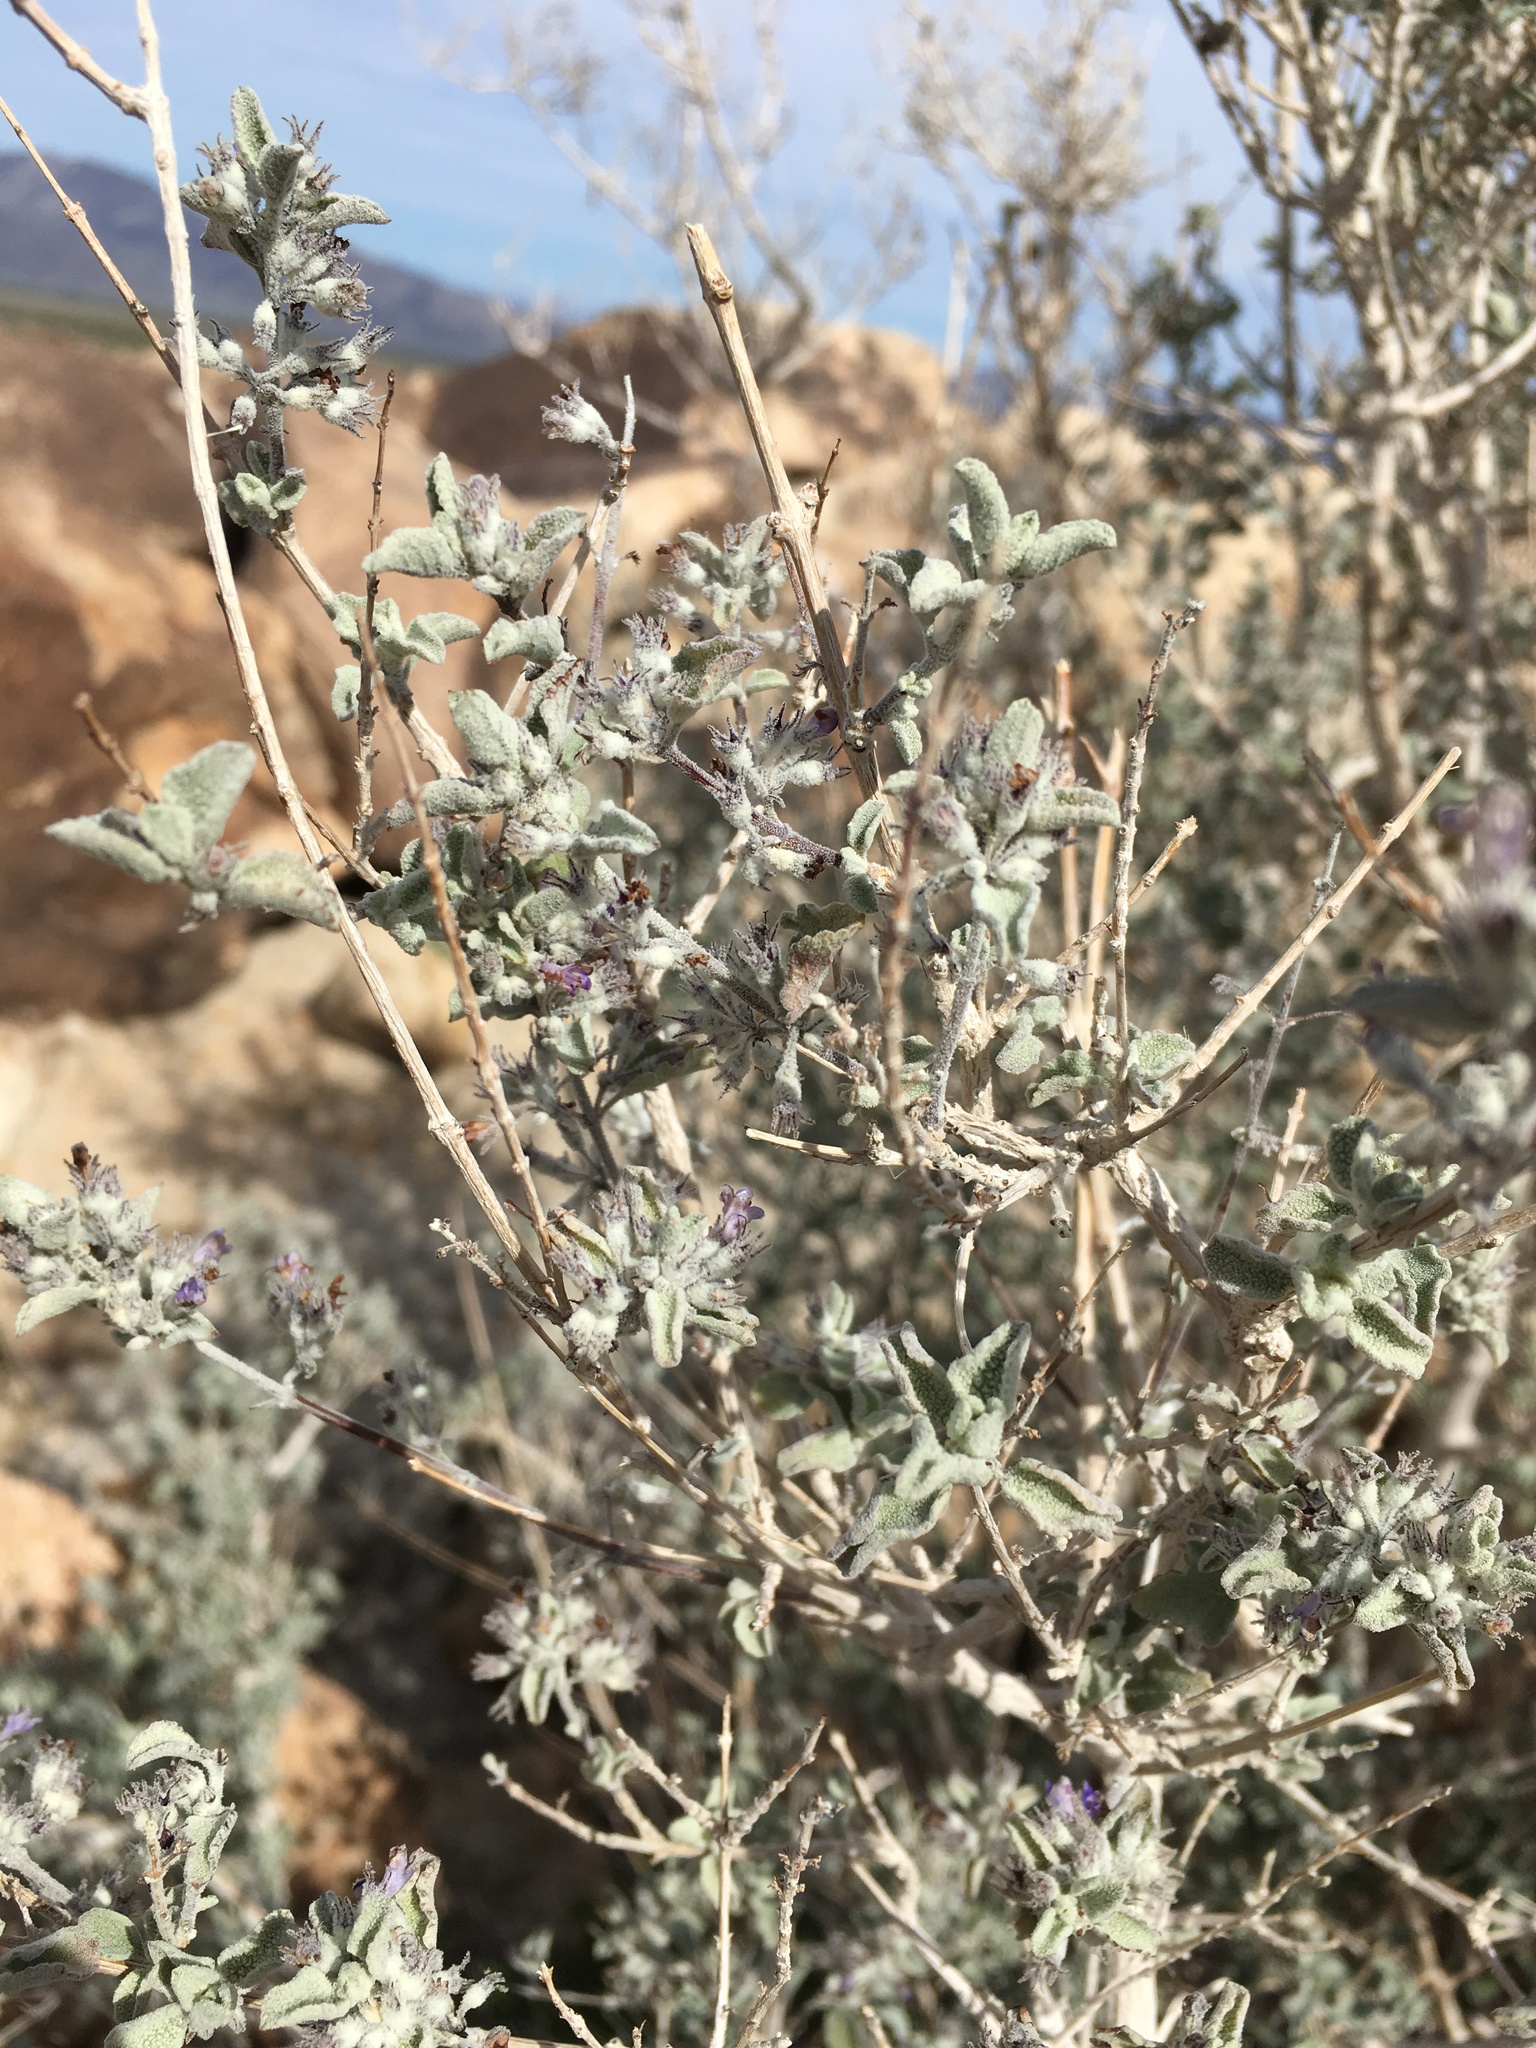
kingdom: Plantae
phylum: Tracheophyta
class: Magnoliopsida
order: Lamiales
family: Lamiaceae
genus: Condea
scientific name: Condea emoryi
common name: Chia
